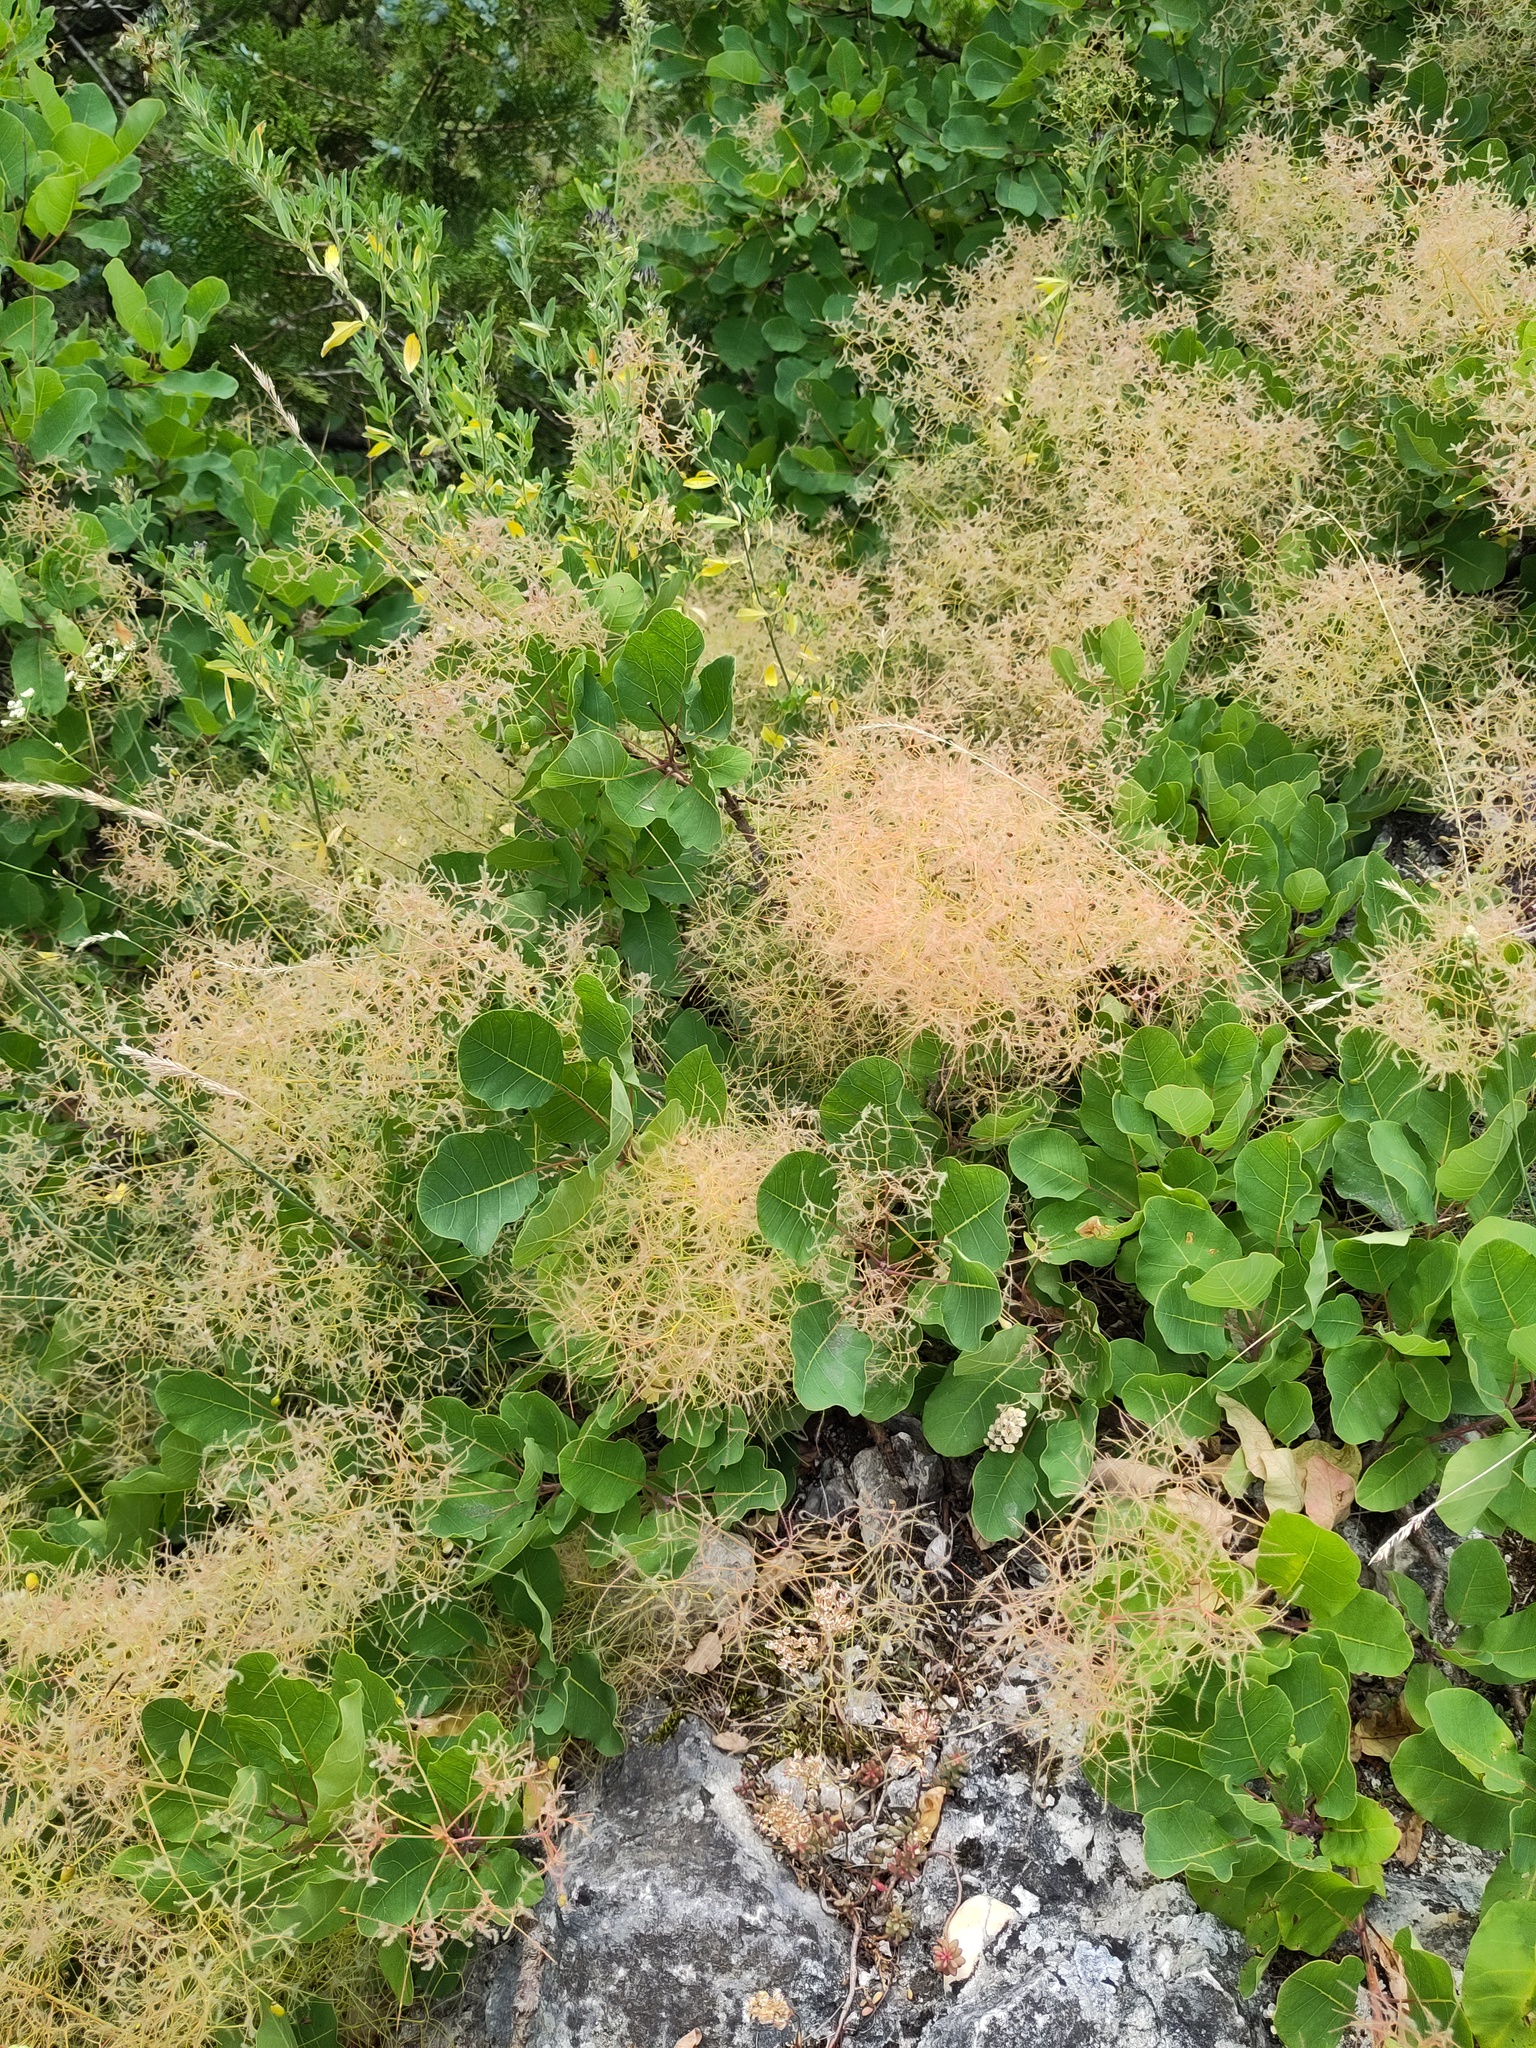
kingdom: Plantae
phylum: Tracheophyta
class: Magnoliopsida
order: Sapindales
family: Anacardiaceae
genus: Cotinus
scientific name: Cotinus coggygria
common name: Smoke-tree
